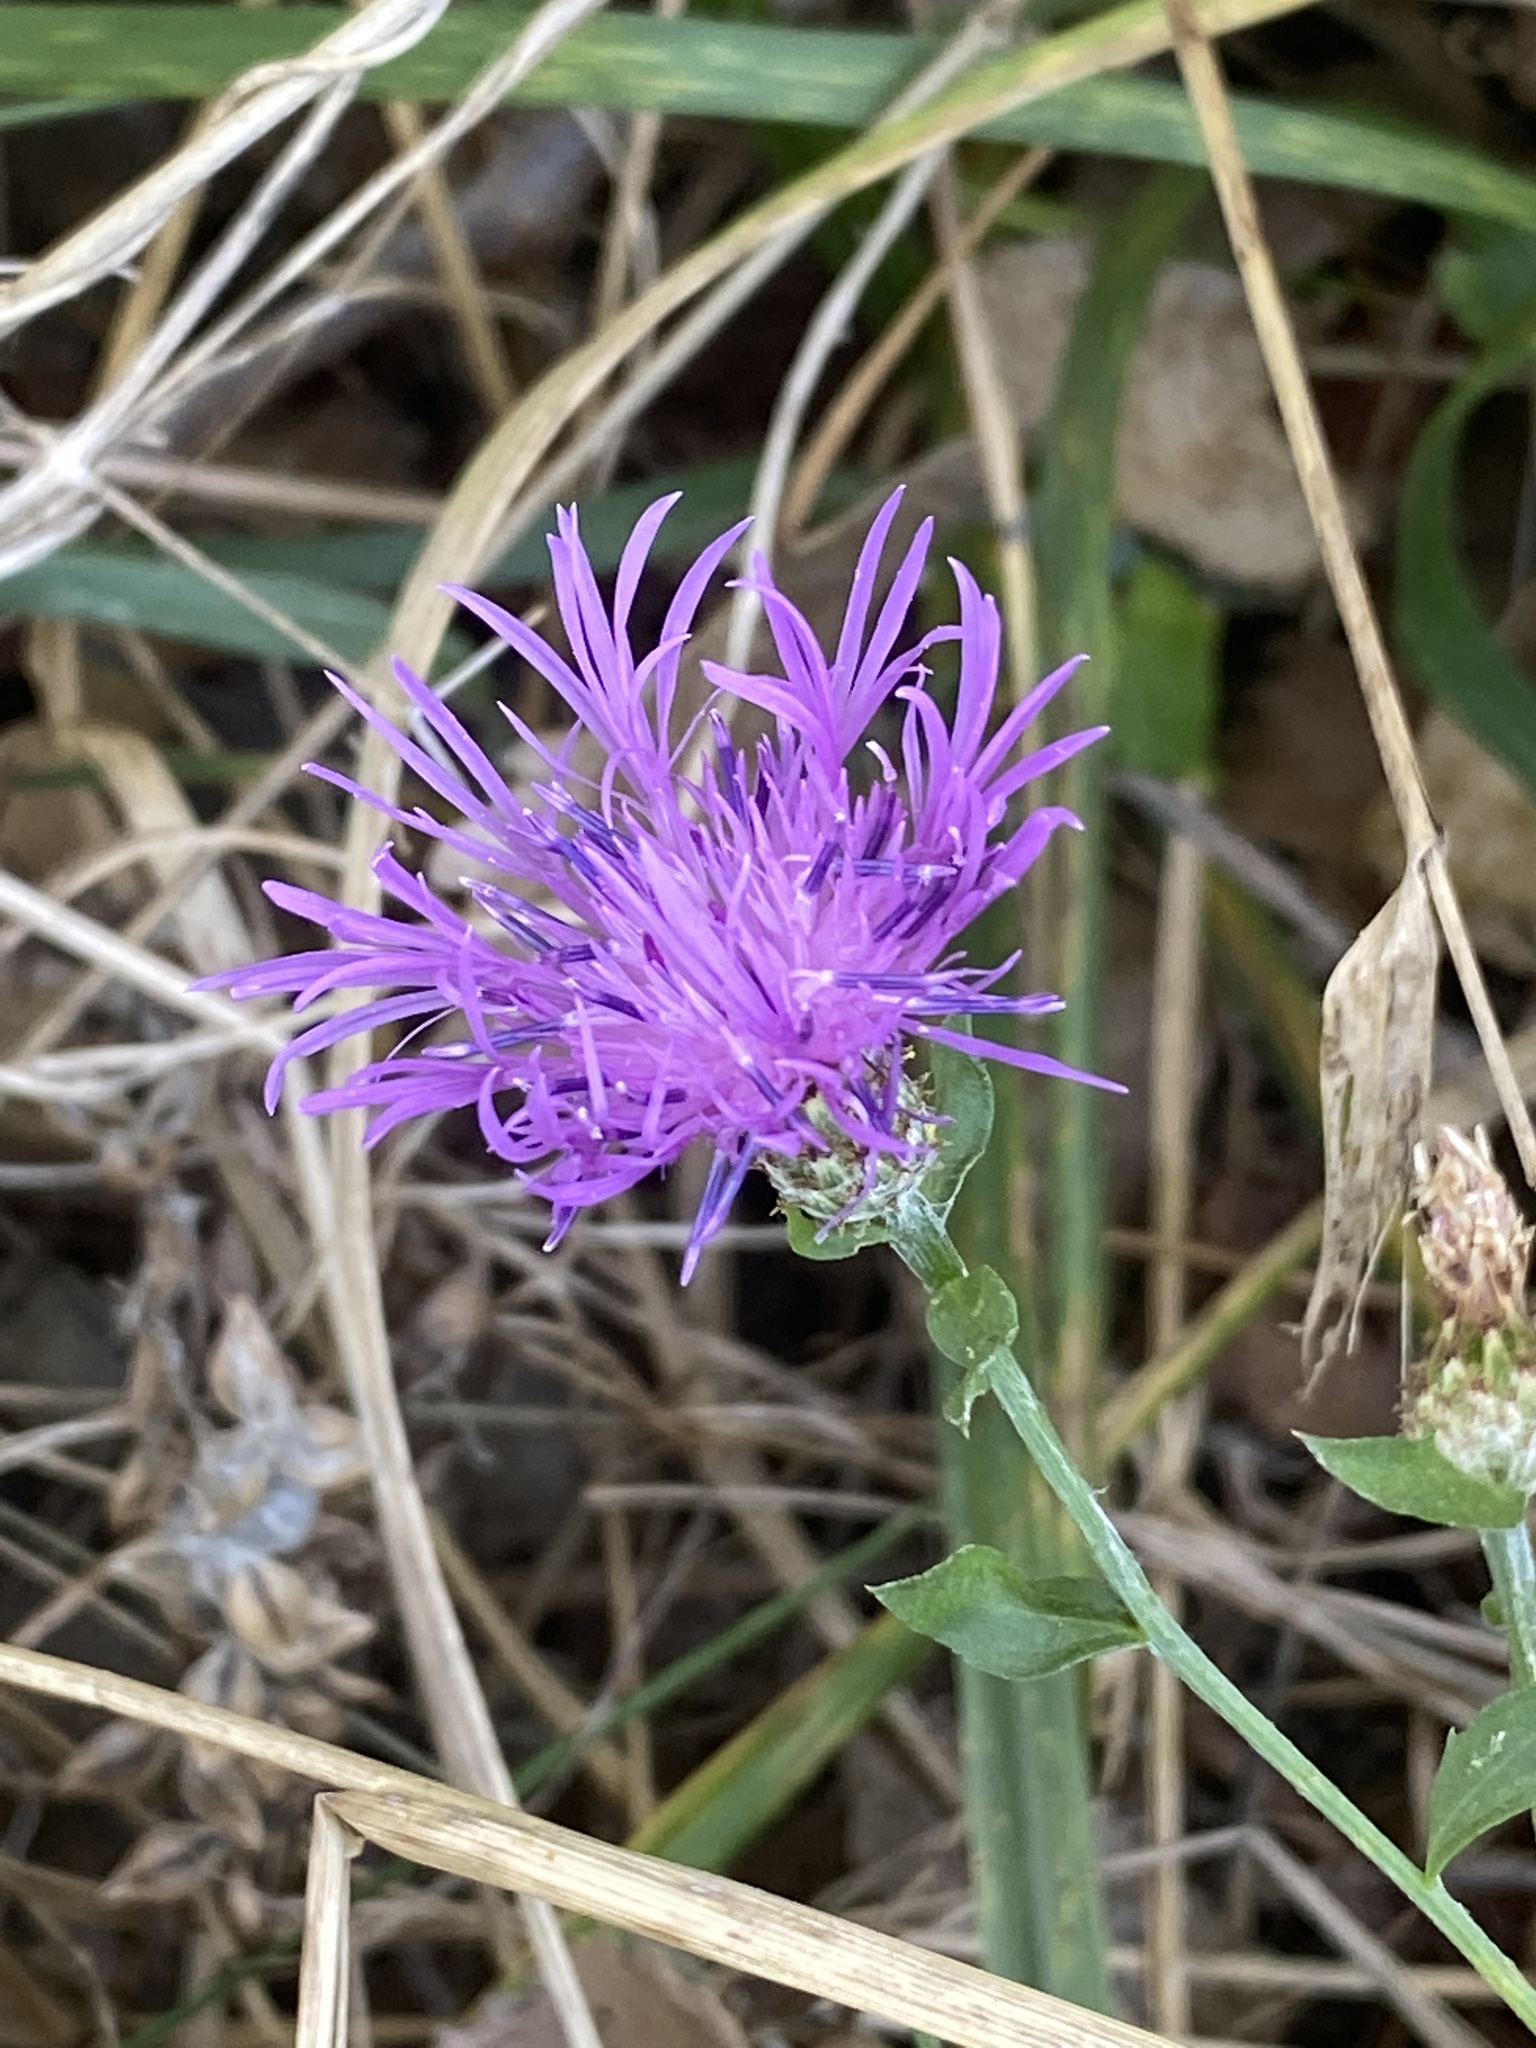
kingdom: Plantae
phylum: Tracheophyta
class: Magnoliopsida
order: Asterales
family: Asteraceae
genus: Centaurea
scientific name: Centaurea nigrescens
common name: Tyrol knapweed
